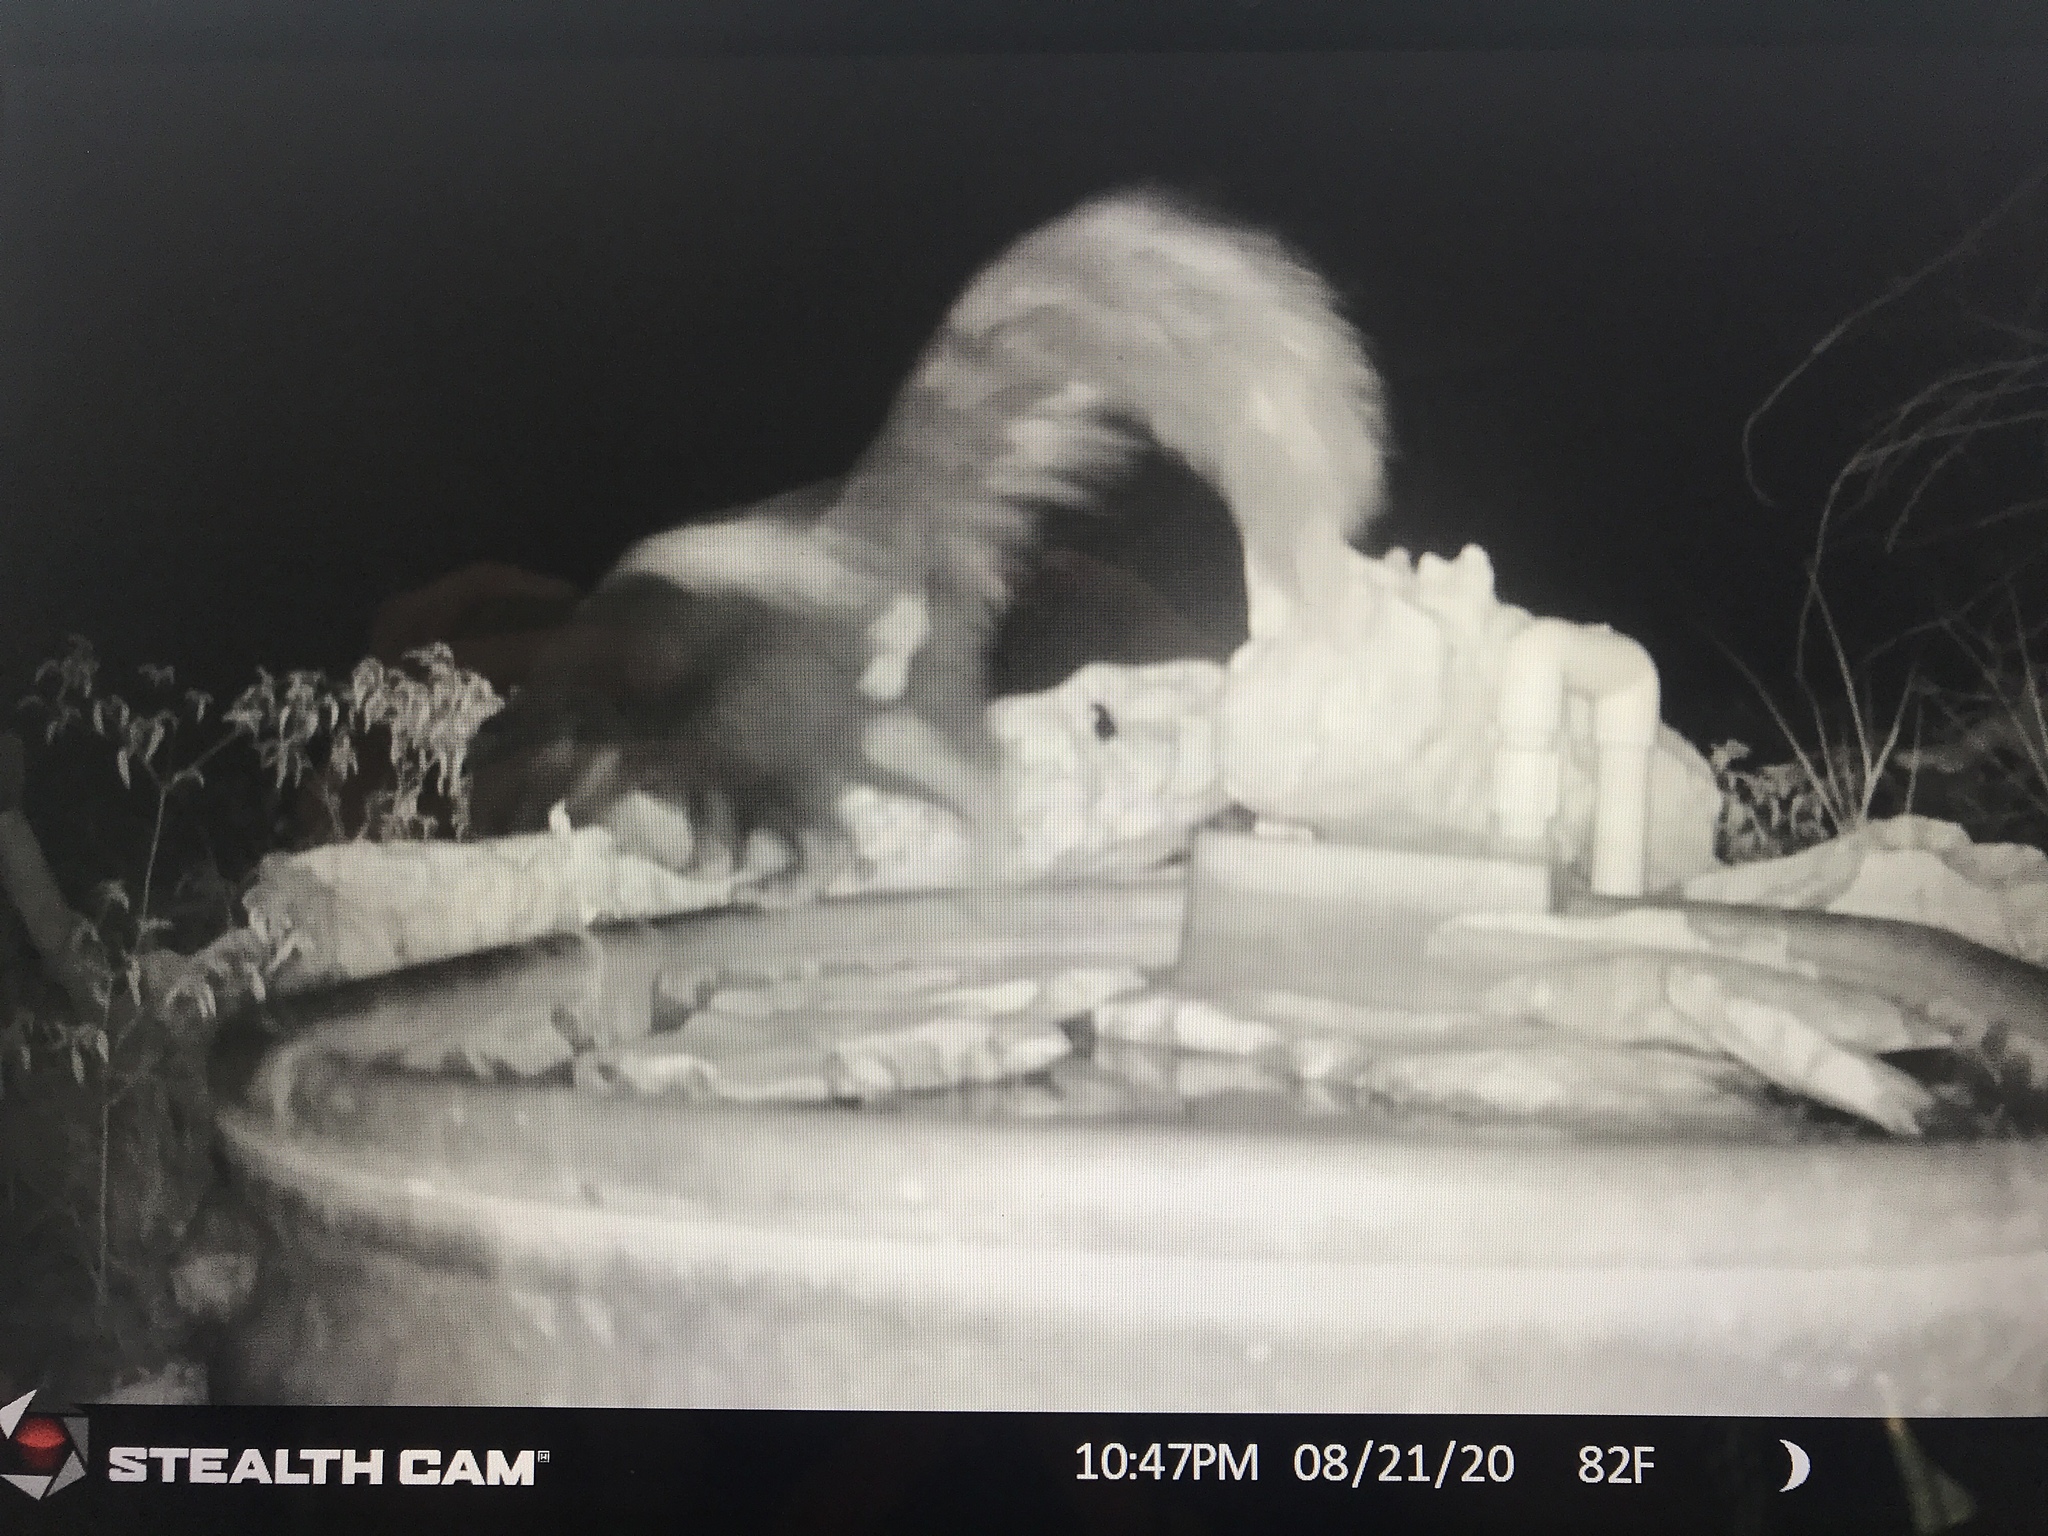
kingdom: Animalia
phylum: Chordata
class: Mammalia
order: Carnivora
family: Mephitidae
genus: Mephitis
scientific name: Mephitis mephitis
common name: Striped skunk
